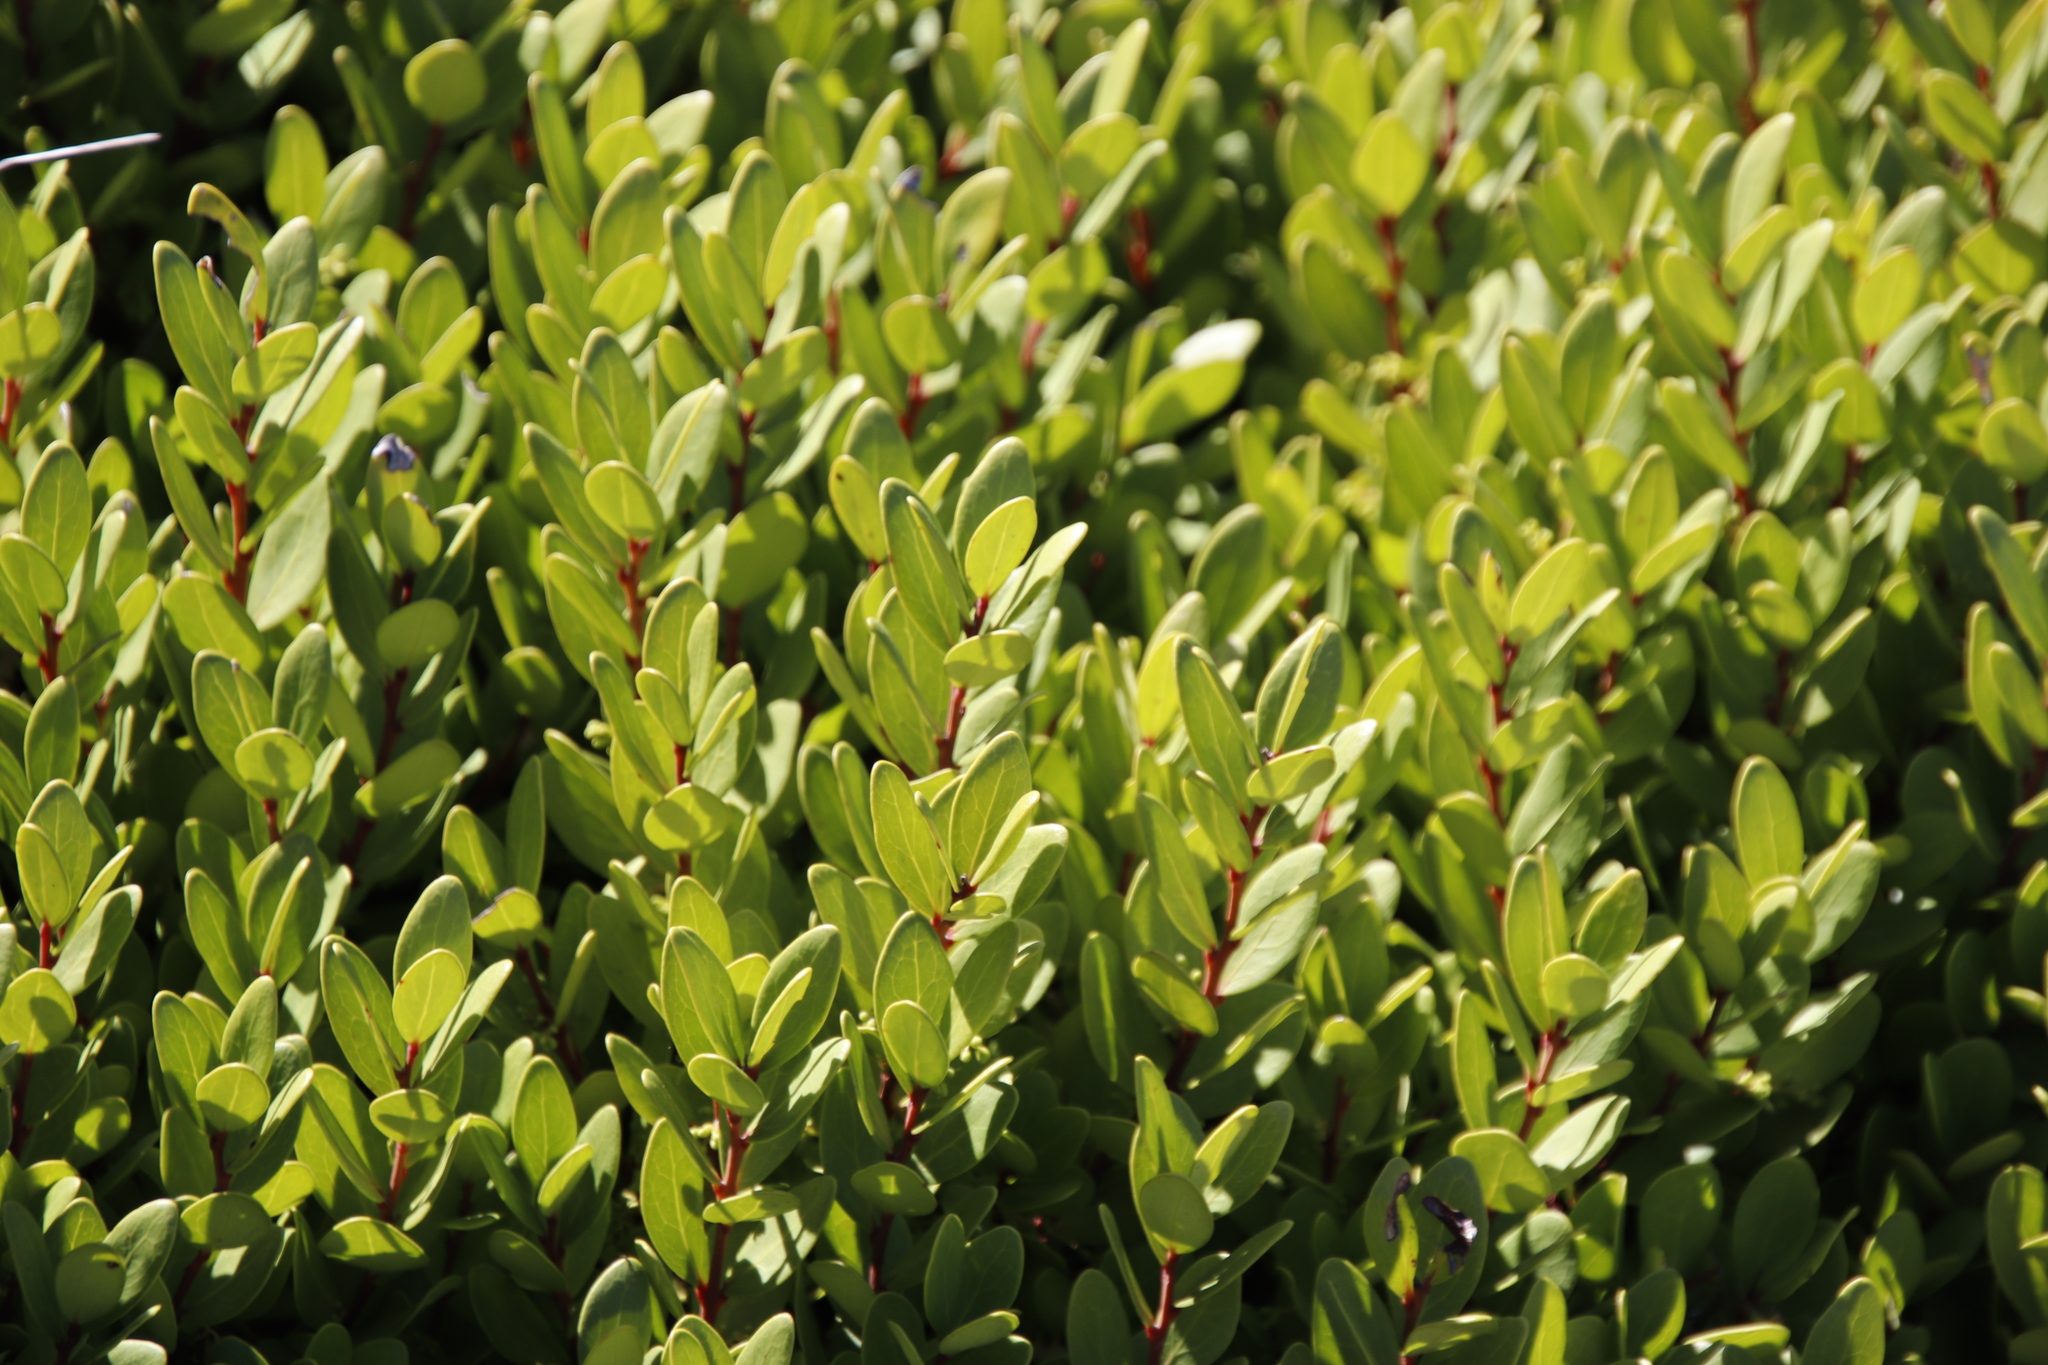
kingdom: Plantae
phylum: Tracheophyta
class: Magnoliopsida
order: Ericales
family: Ebenaceae
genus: Euclea
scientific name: Euclea racemosa
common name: Dune guarri
